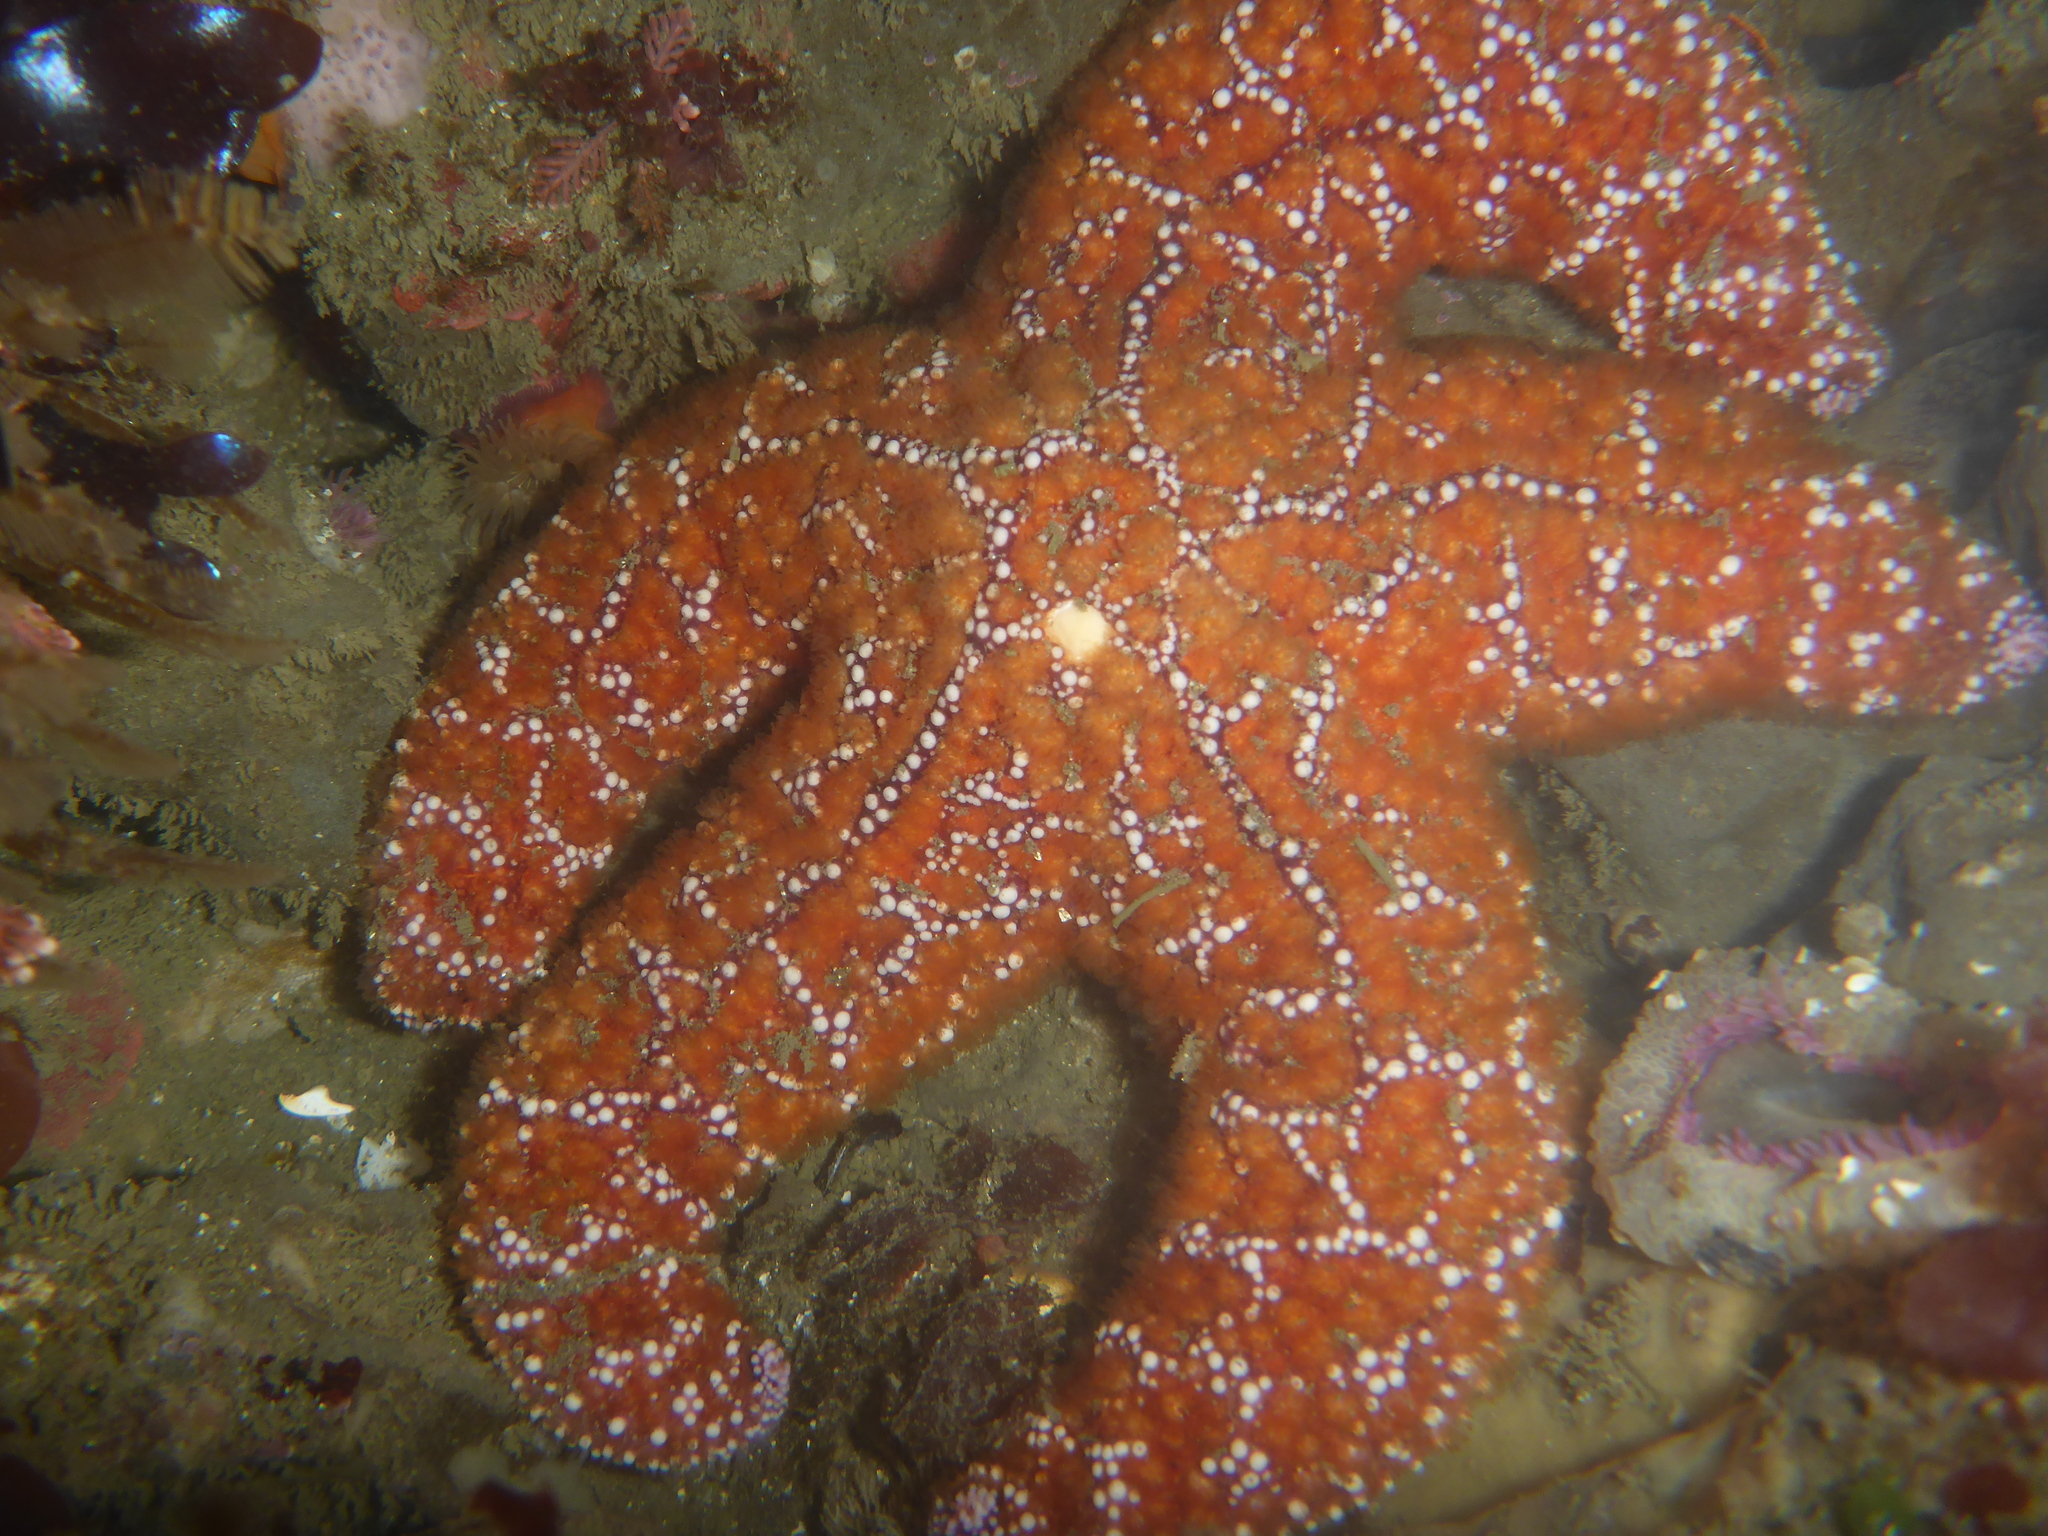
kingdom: Animalia
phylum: Echinodermata
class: Asteroidea
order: Forcipulatida
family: Asteriidae
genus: Pisaster
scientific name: Pisaster ochraceus
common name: Ochre stars
